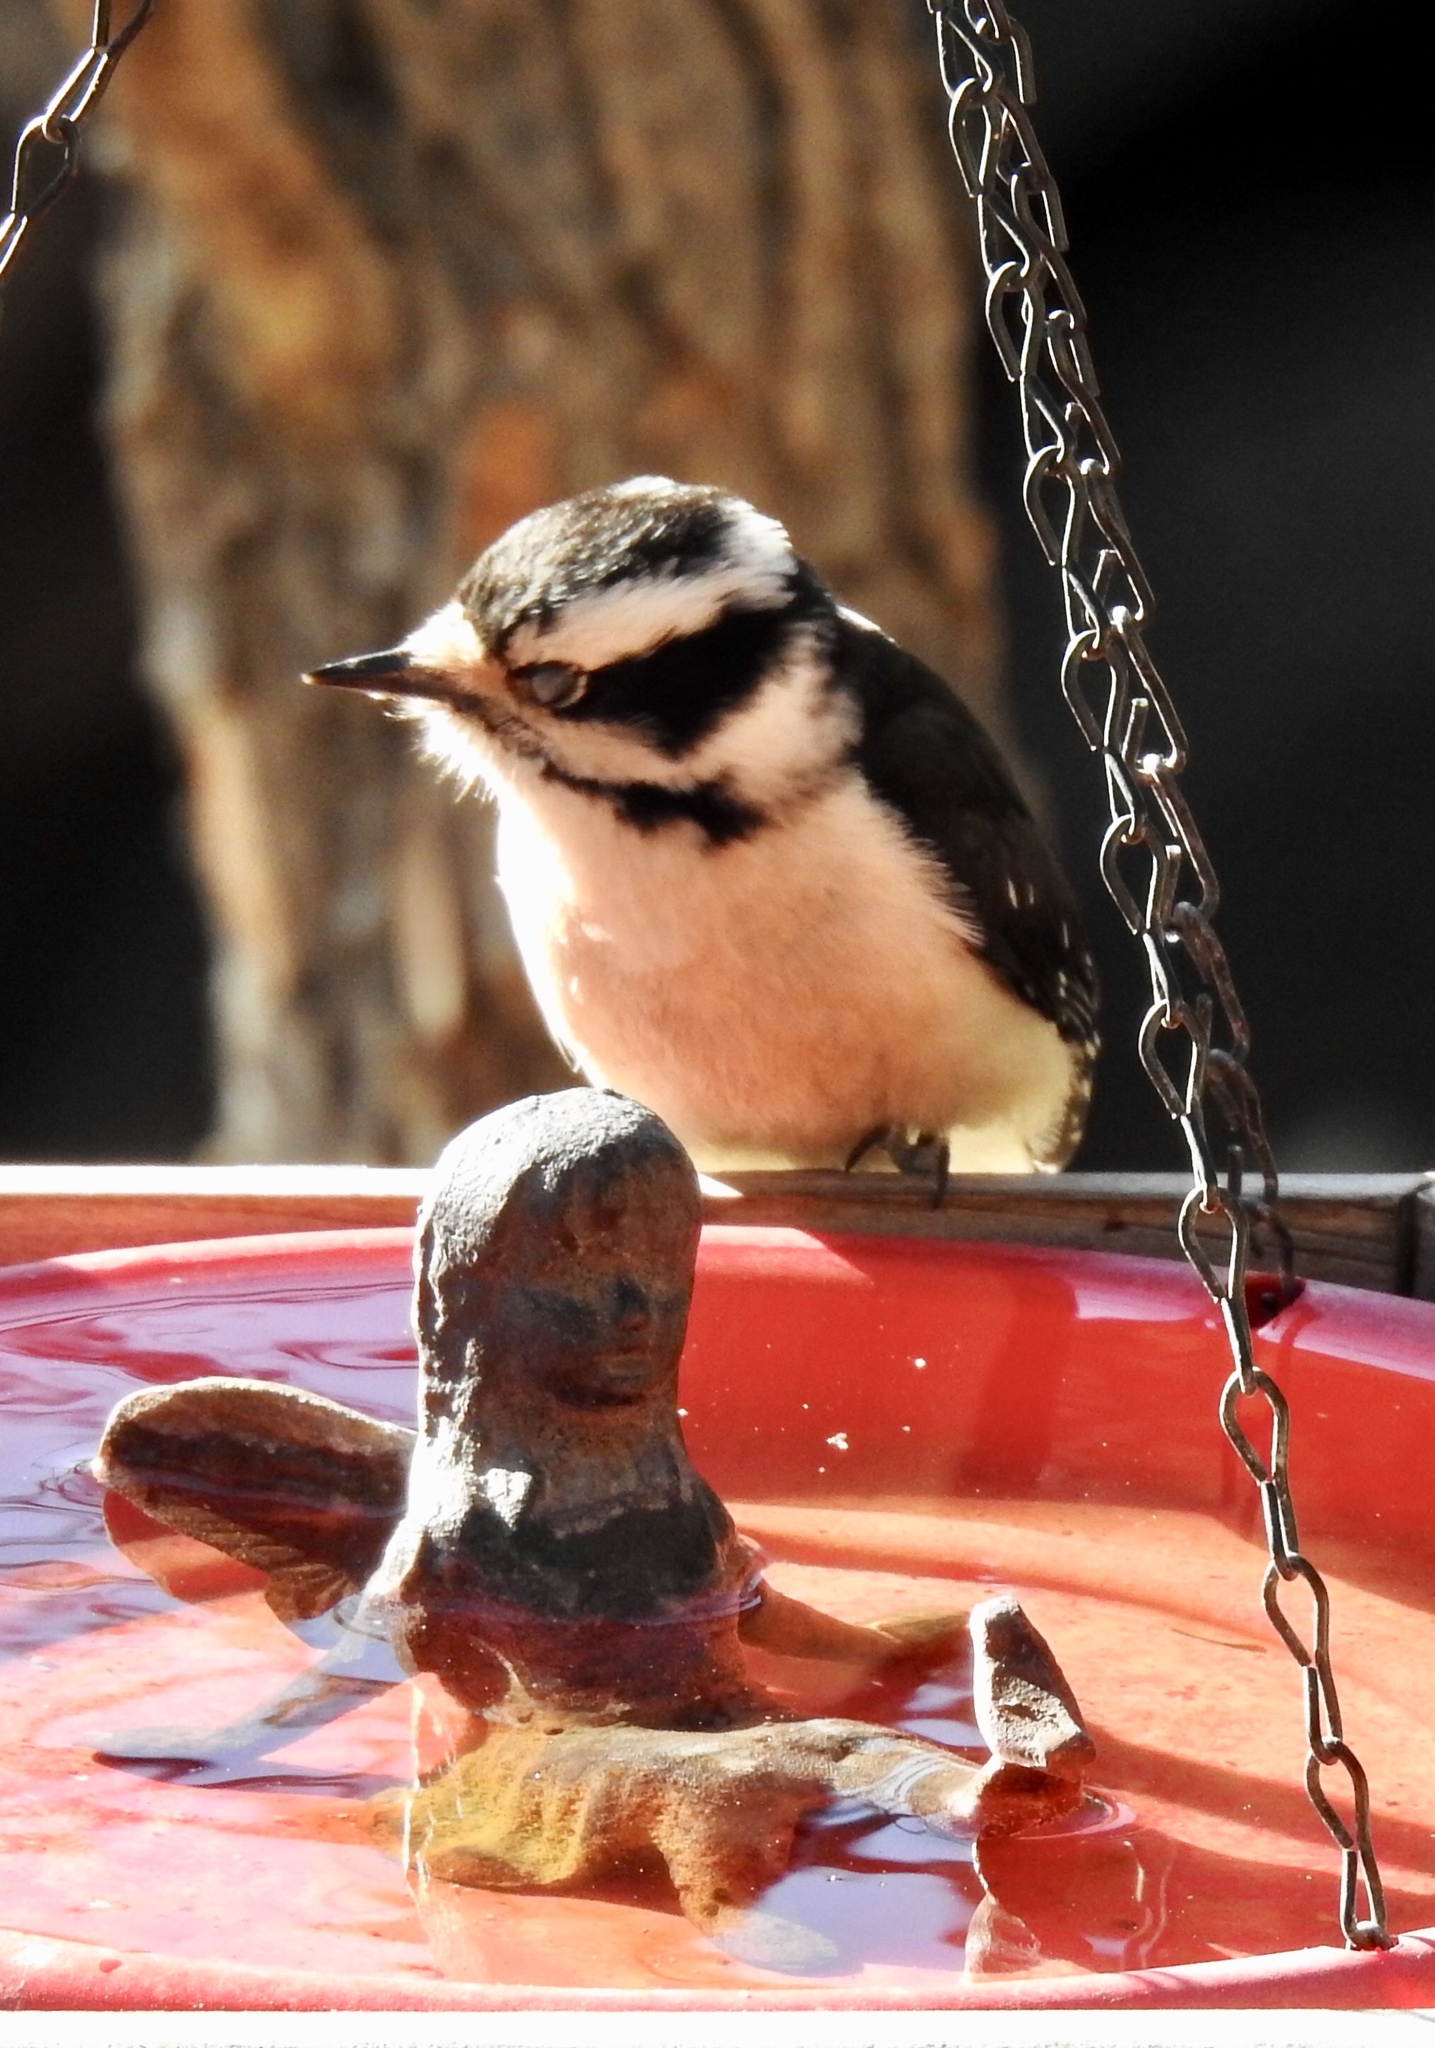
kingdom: Animalia
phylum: Chordata
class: Aves
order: Piciformes
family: Picidae
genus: Dryobates
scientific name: Dryobates pubescens
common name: Downy woodpecker
